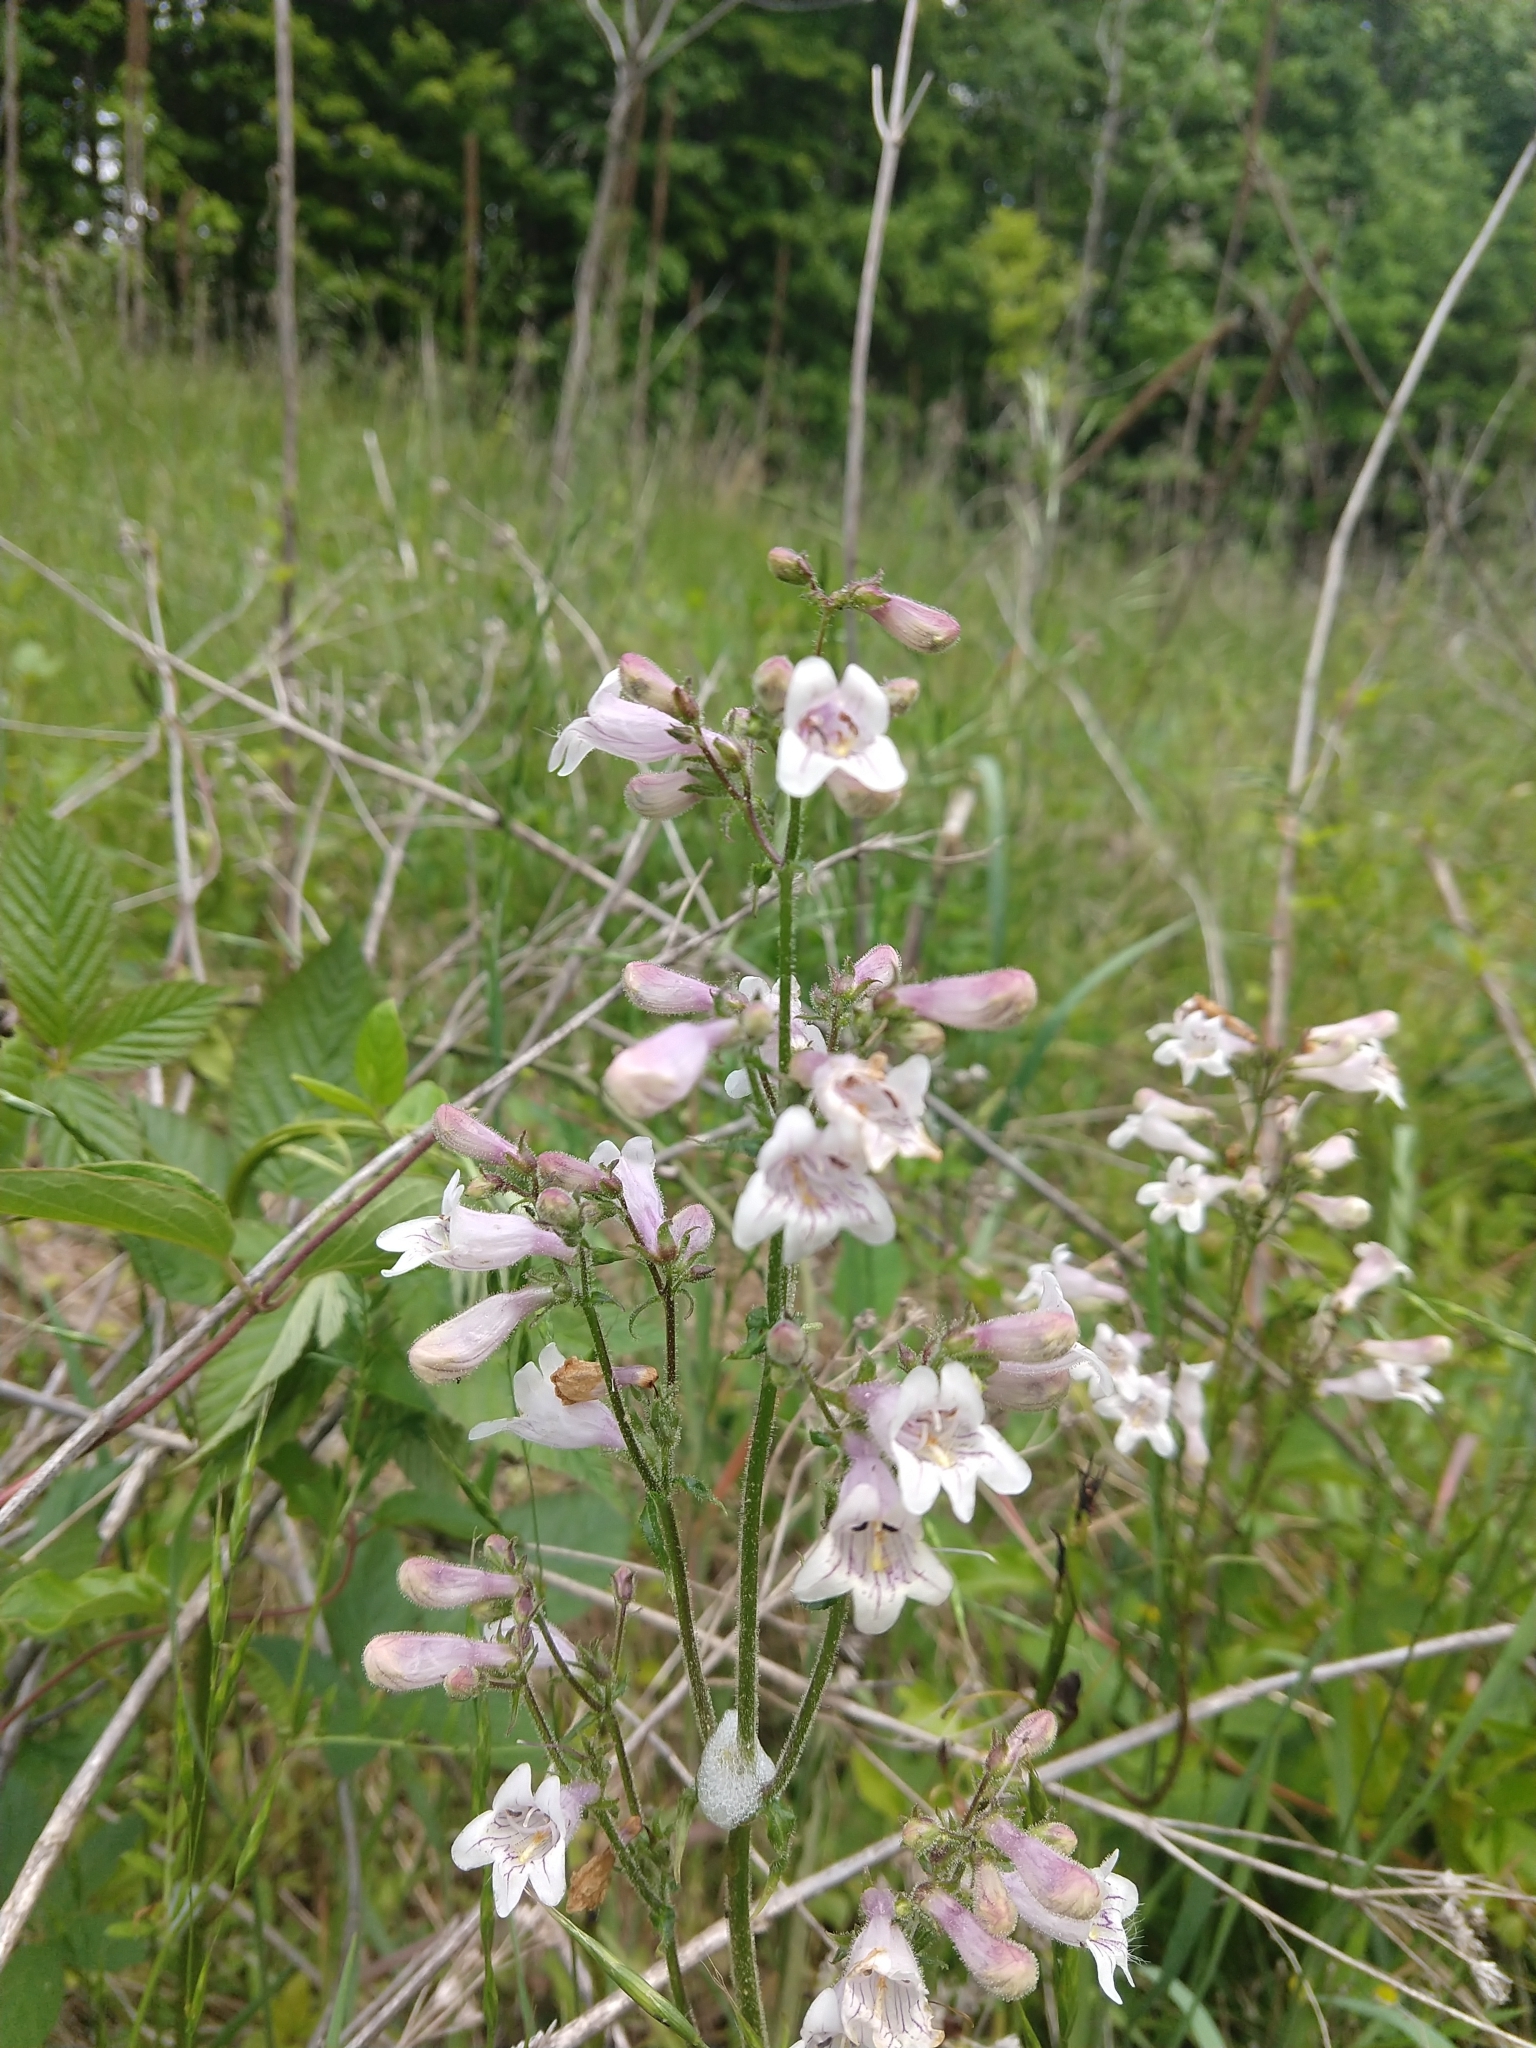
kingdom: Plantae
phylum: Tracheophyta
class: Magnoliopsida
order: Lamiales
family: Plantaginaceae
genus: Penstemon
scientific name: Penstemon laevigatus
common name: Eastern beardtongue
